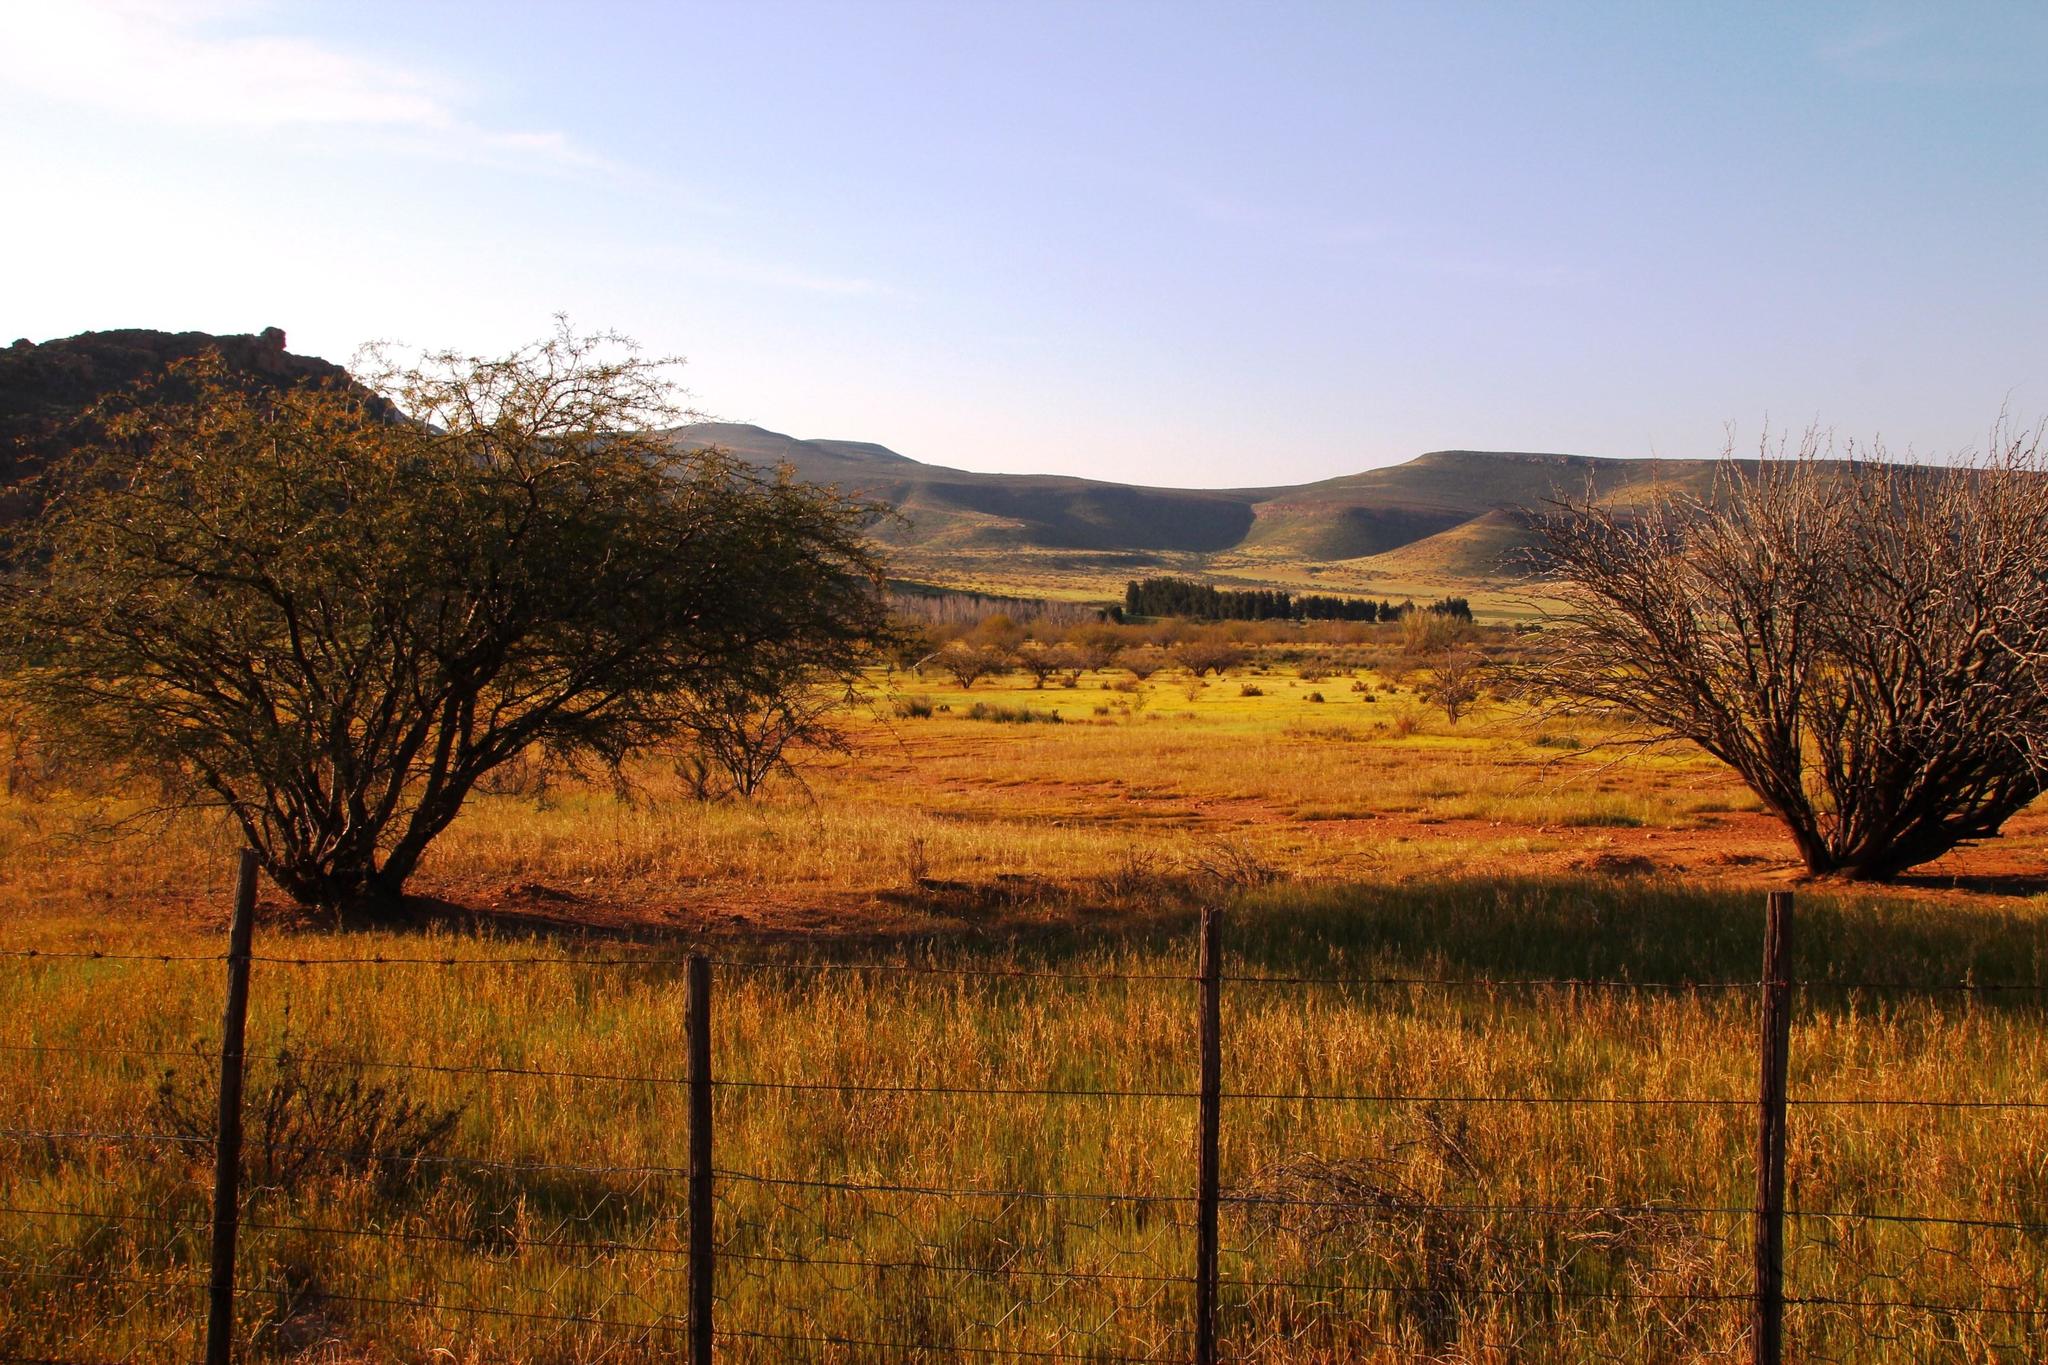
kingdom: Plantae
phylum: Tracheophyta
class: Magnoliopsida
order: Fabales
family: Fabaceae
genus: Prosopis
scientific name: Prosopis glandulosa
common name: Honey mesquite
